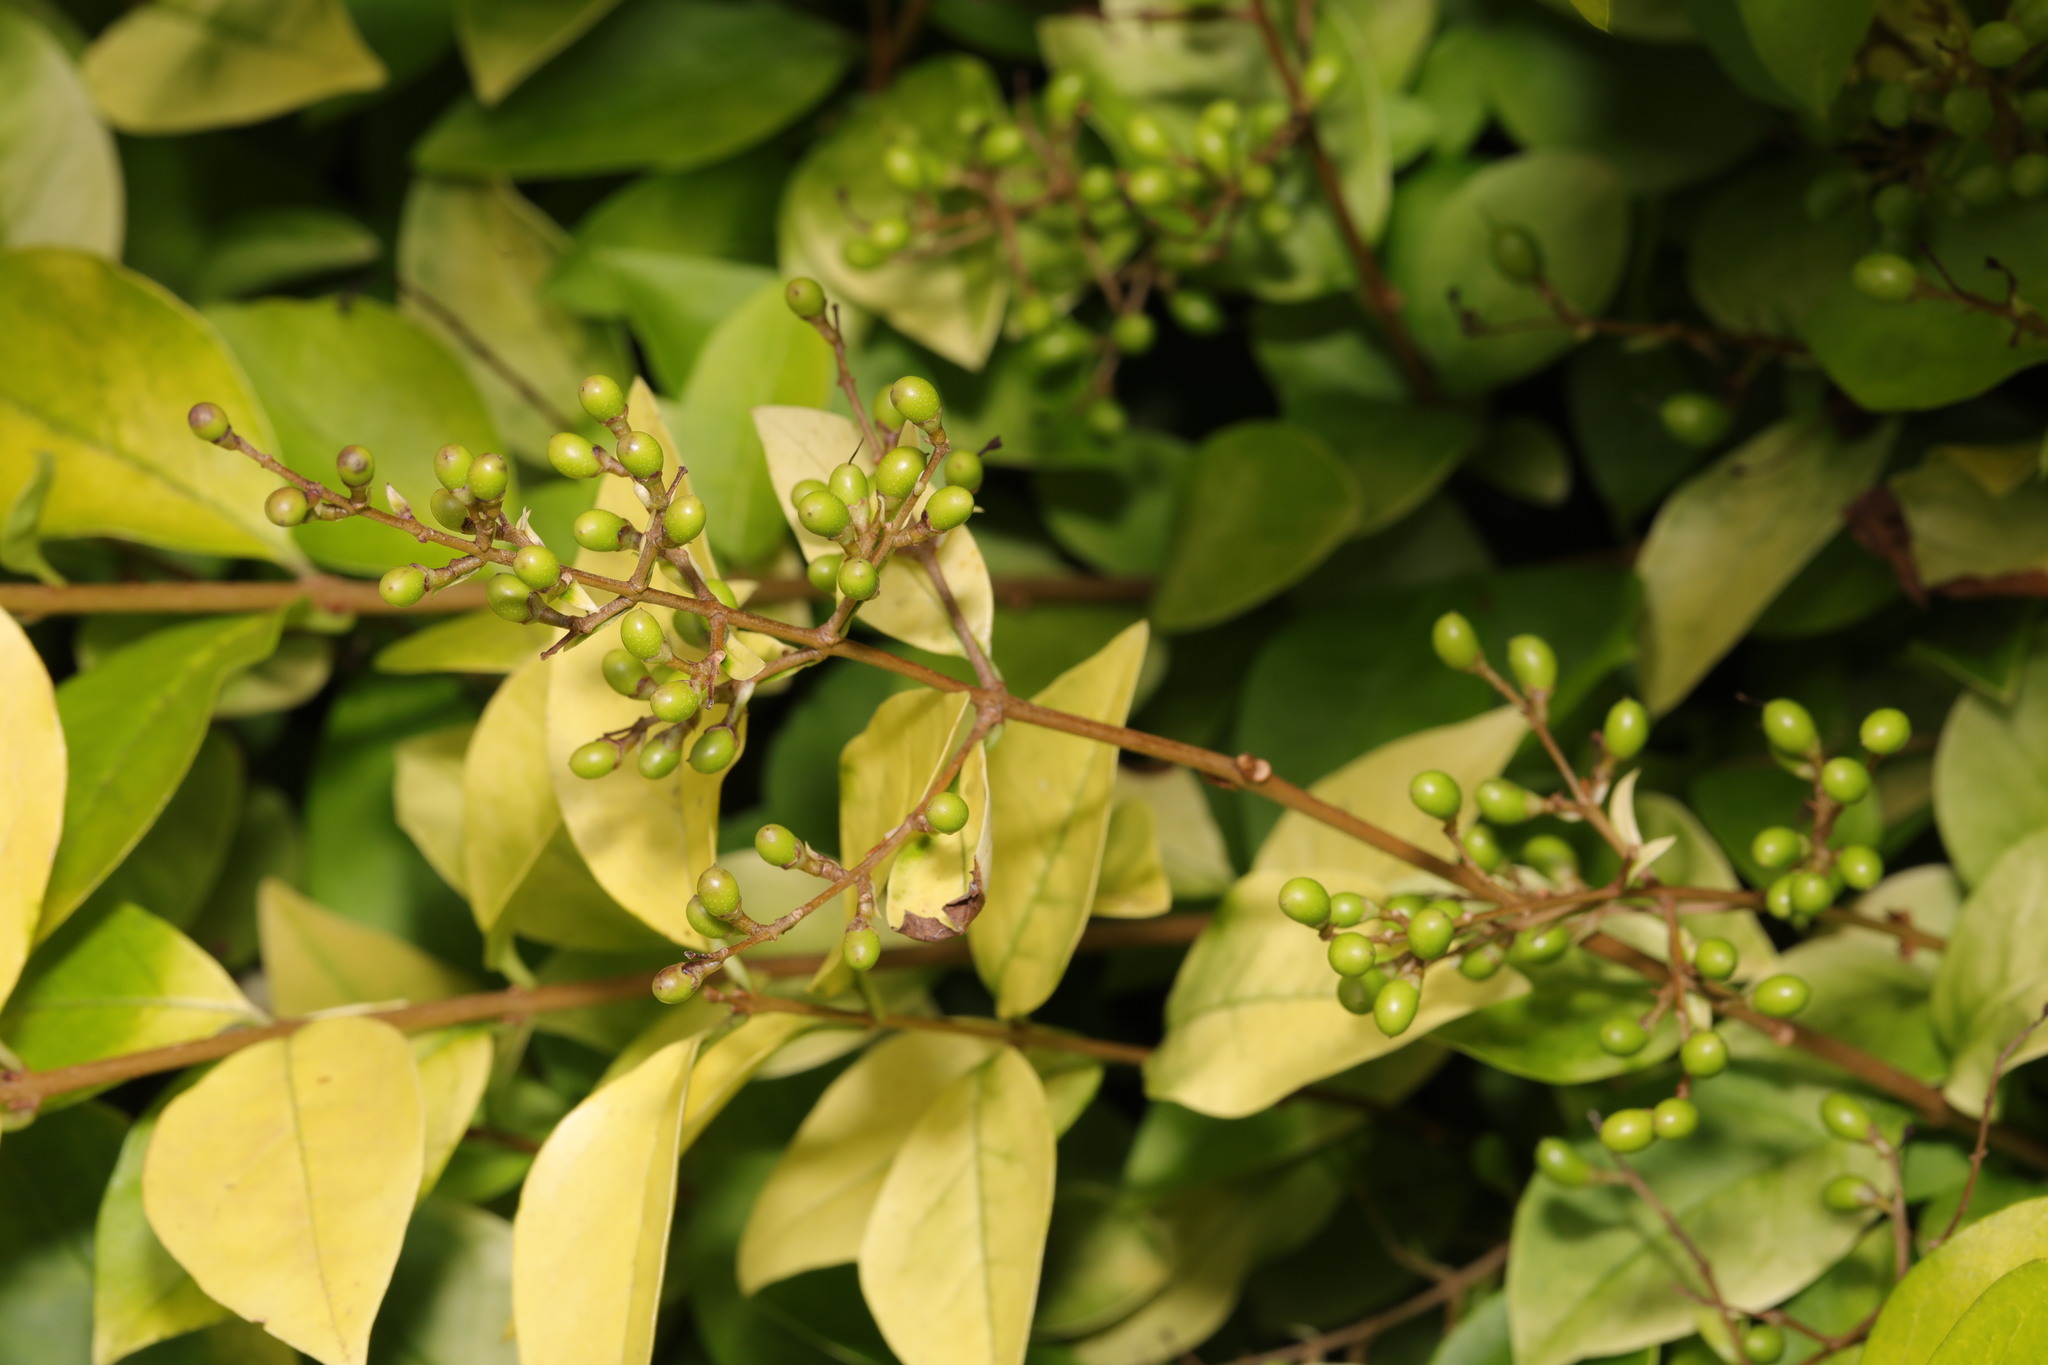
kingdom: Plantae
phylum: Tracheophyta
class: Magnoliopsida
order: Lamiales
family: Oleaceae
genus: Ligustrum
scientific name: Ligustrum ovalifolium
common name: California privet
